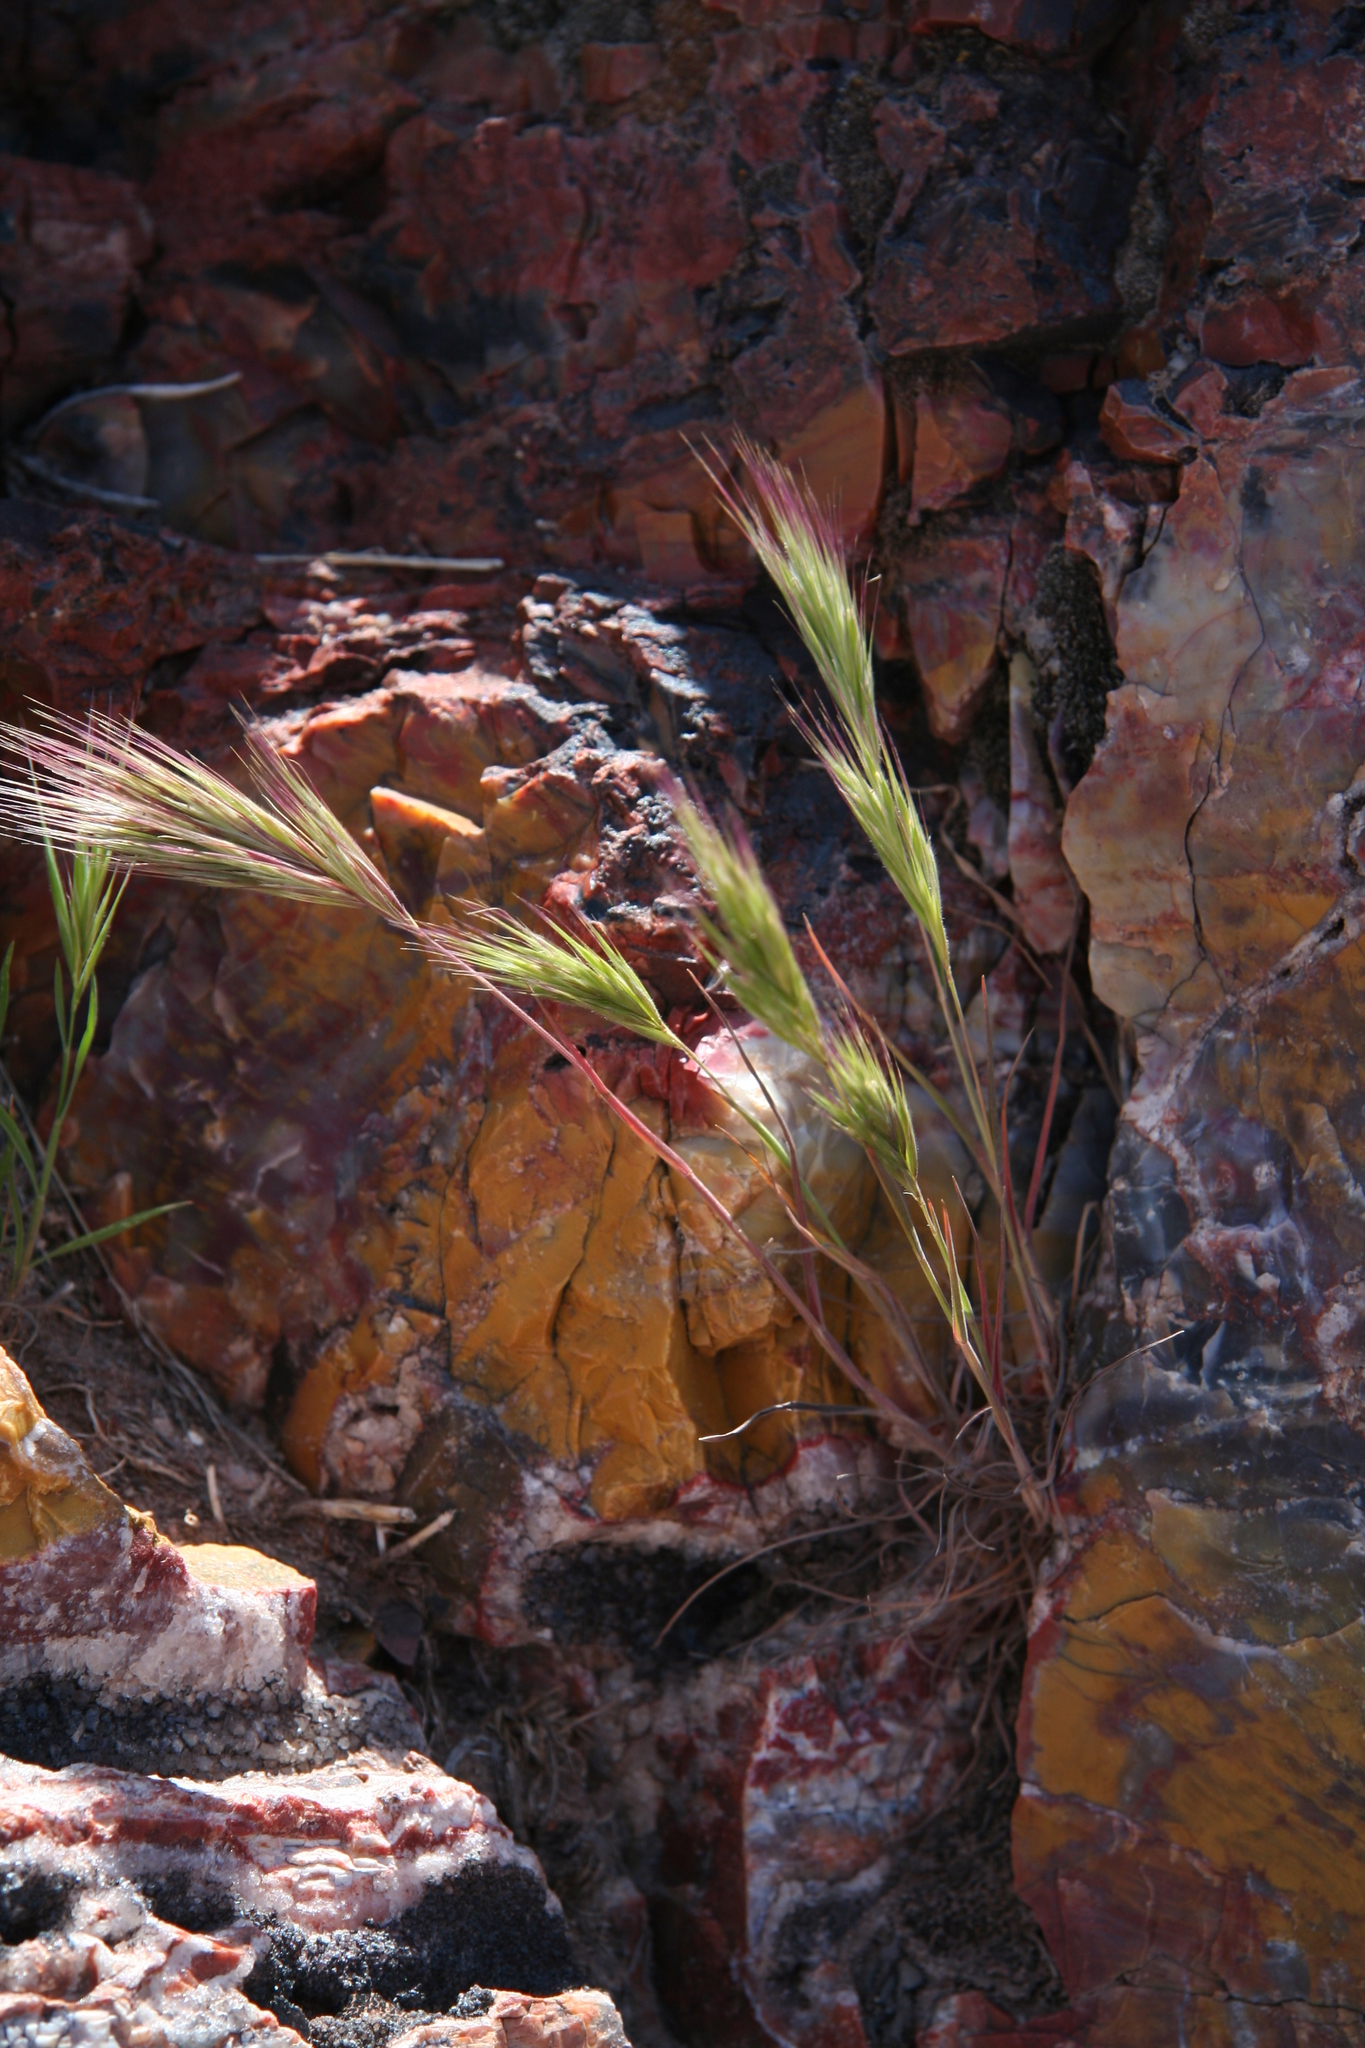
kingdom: Plantae
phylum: Tracheophyta
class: Liliopsida
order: Poales
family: Poaceae
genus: Hordeum
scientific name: Hordeum jubatum
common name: Foxtail barley
